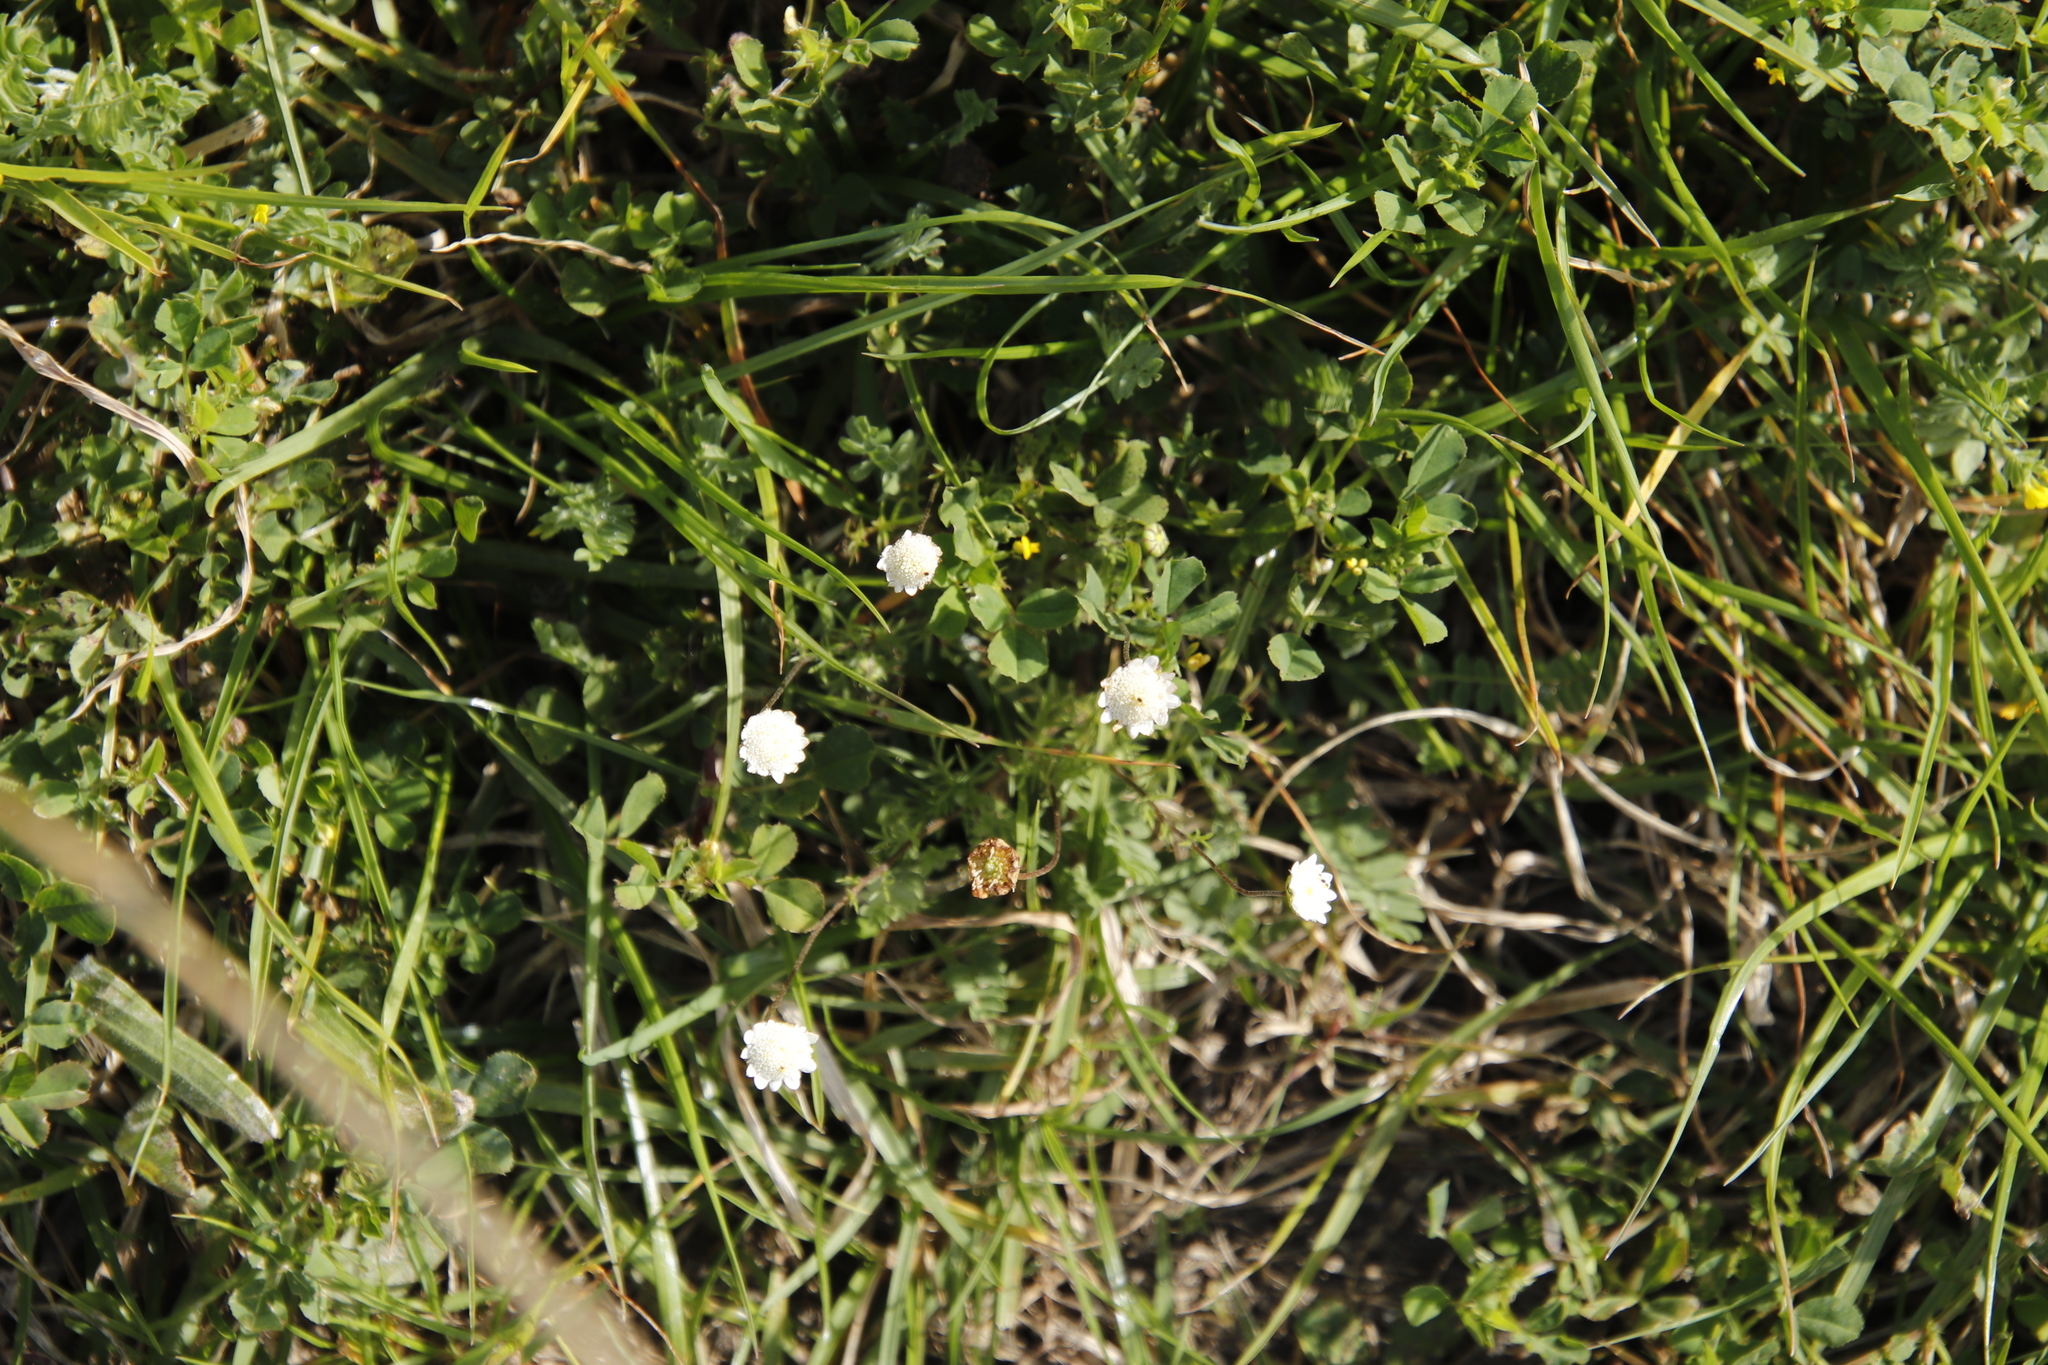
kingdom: Plantae
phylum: Tracheophyta
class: Magnoliopsida
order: Asterales
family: Asteraceae
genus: Cotula
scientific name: Cotula turbinata
